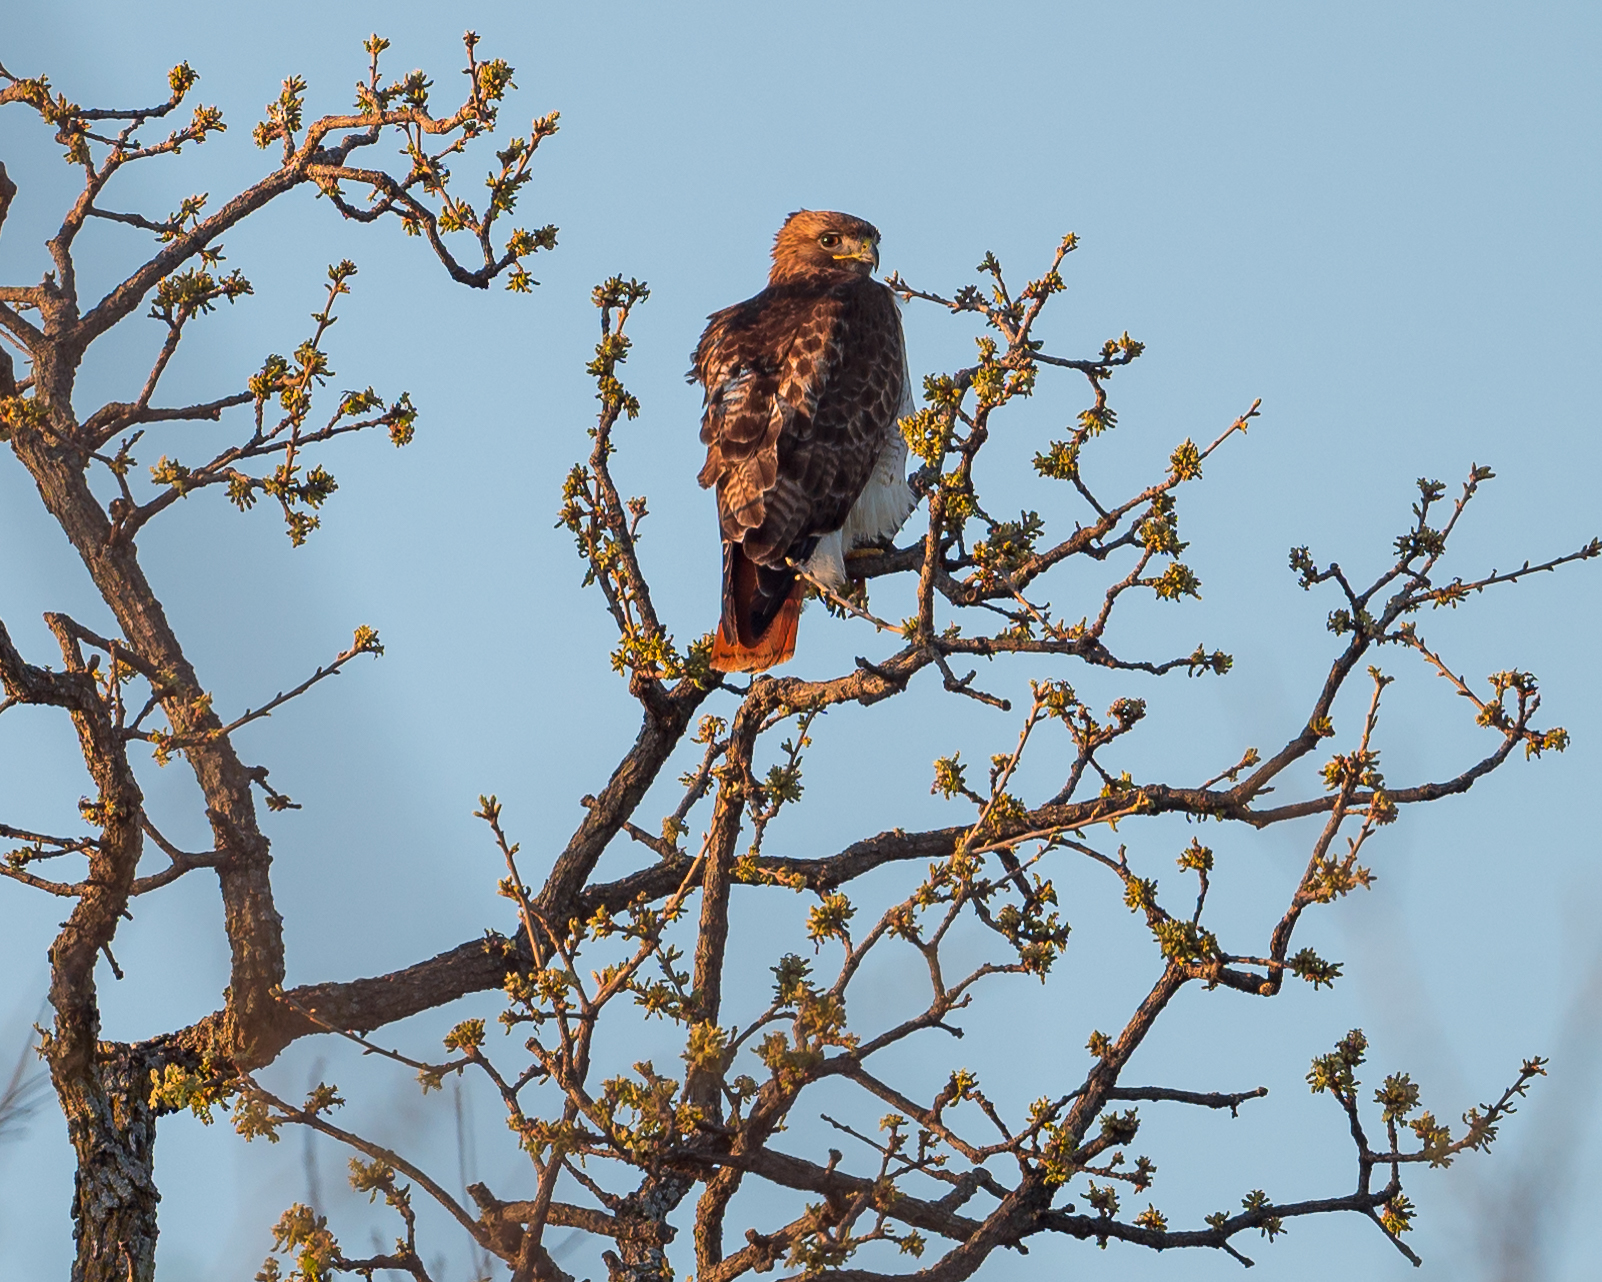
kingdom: Animalia
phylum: Chordata
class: Aves
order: Accipitriformes
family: Accipitridae
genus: Buteo
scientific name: Buteo jamaicensis
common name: Red-tailed hawk
